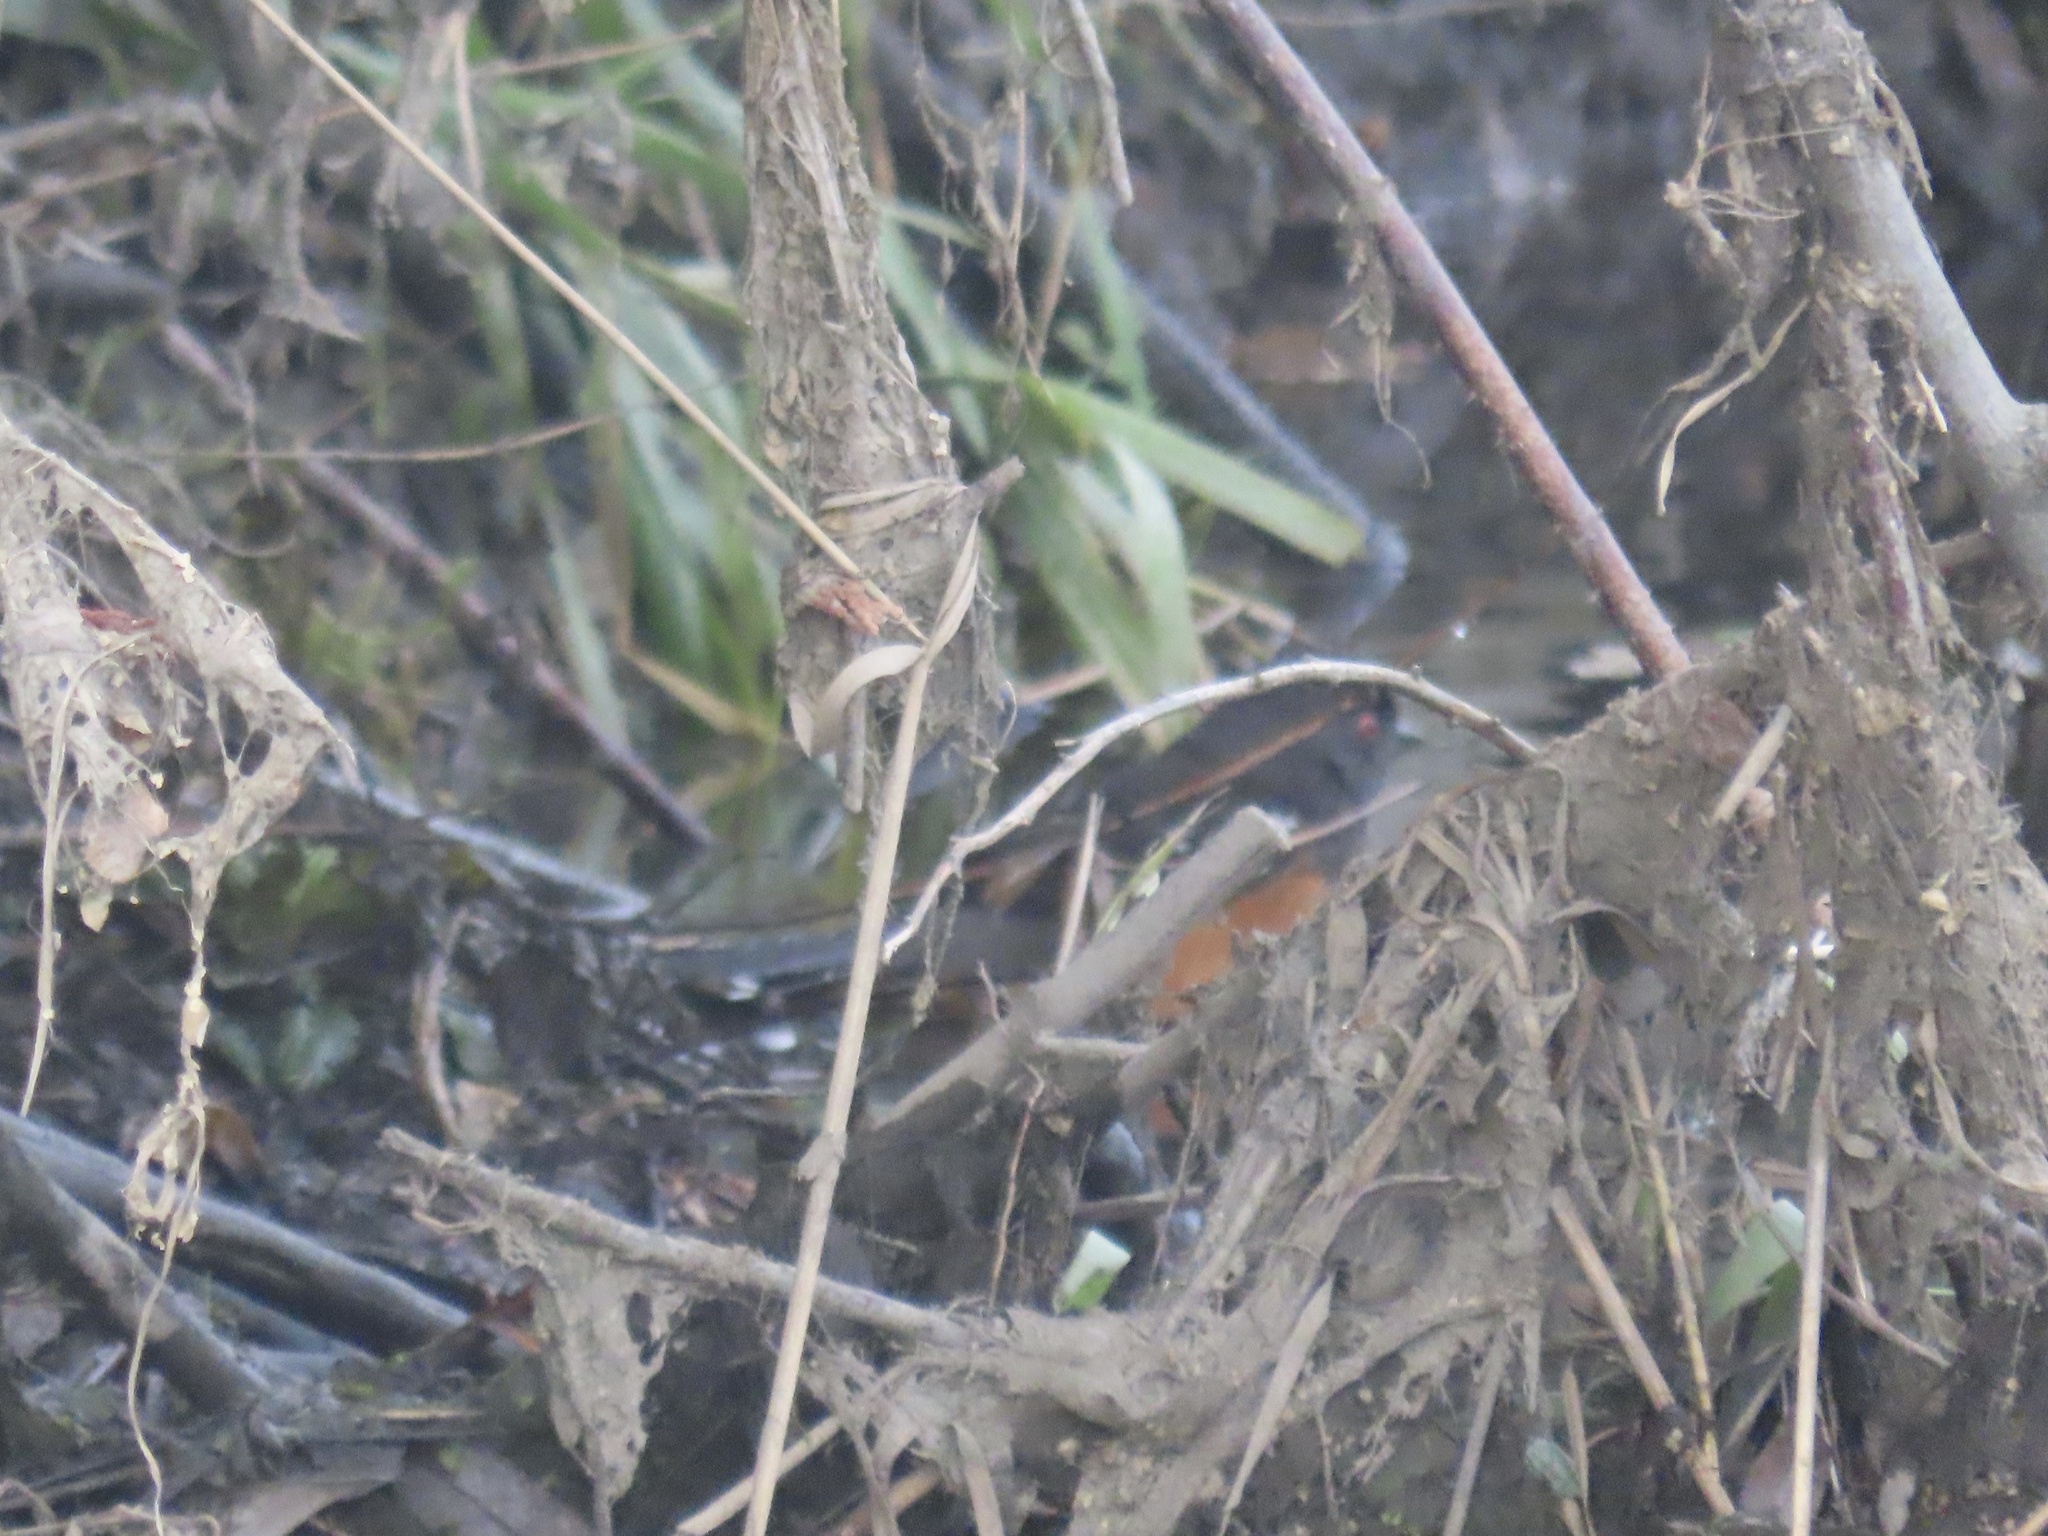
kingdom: Animalia
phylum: Chordata
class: Aves
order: Passeriformes
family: Passerellidae
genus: Pipilo
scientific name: Pipilo maculatus
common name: Spotted towhee
